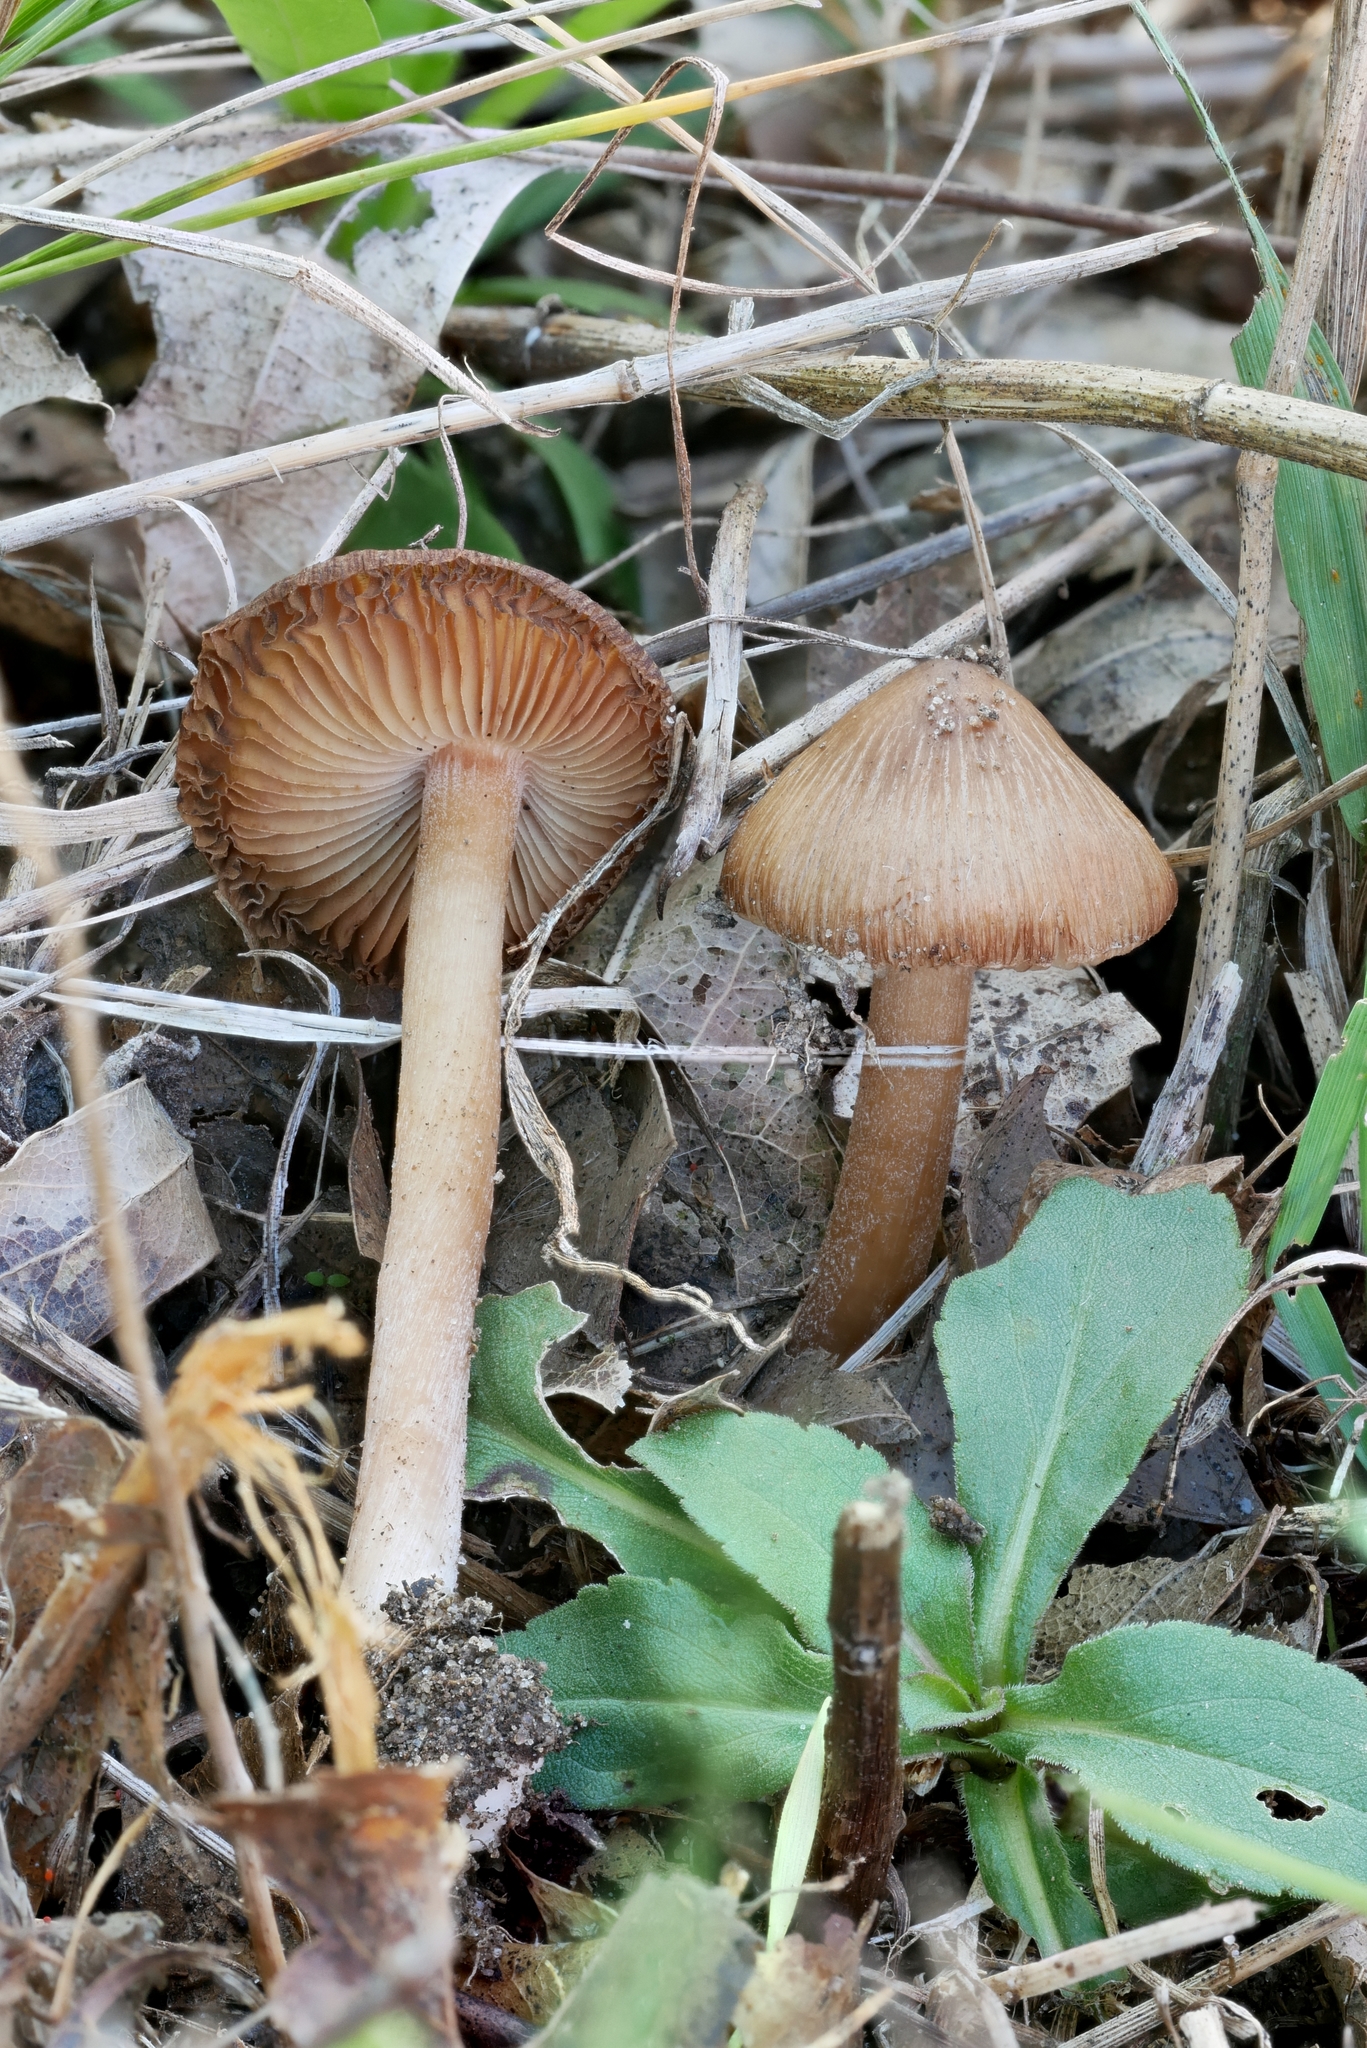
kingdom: Fungi
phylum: Basidiomycota
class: Agaricomycetes
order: Agaricales
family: Inocybaceae
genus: Inocybe
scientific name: Inocybe cicatricata
